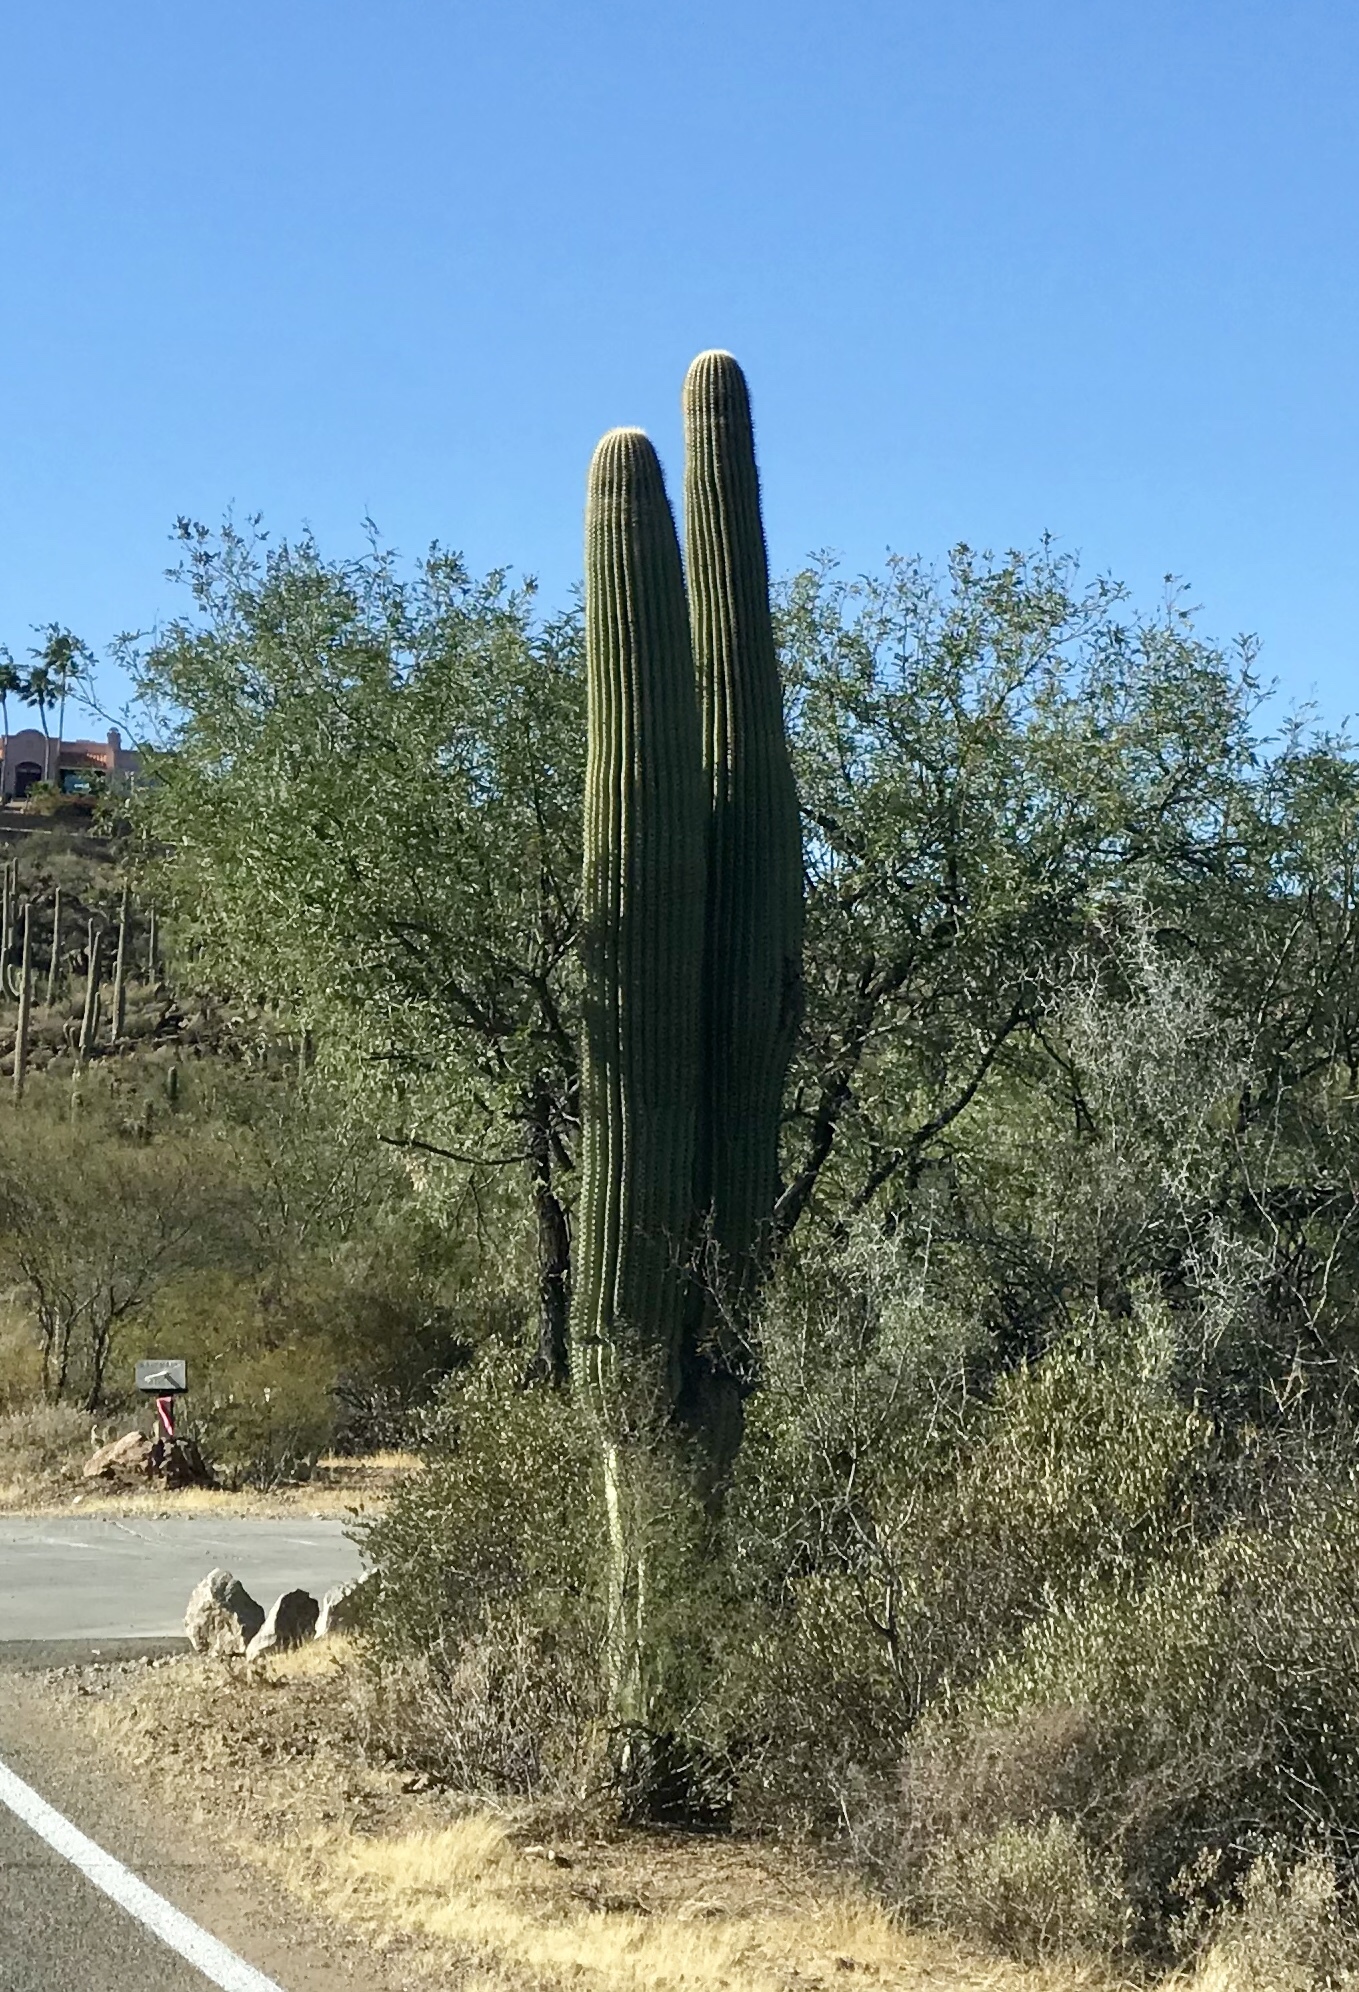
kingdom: Plantae
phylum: Tracheophyta
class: Magnoliopsida
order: Caryophyllales
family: Cactaceae
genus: Carnegiea
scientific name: Carnegiea gigantea
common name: Saguaro
